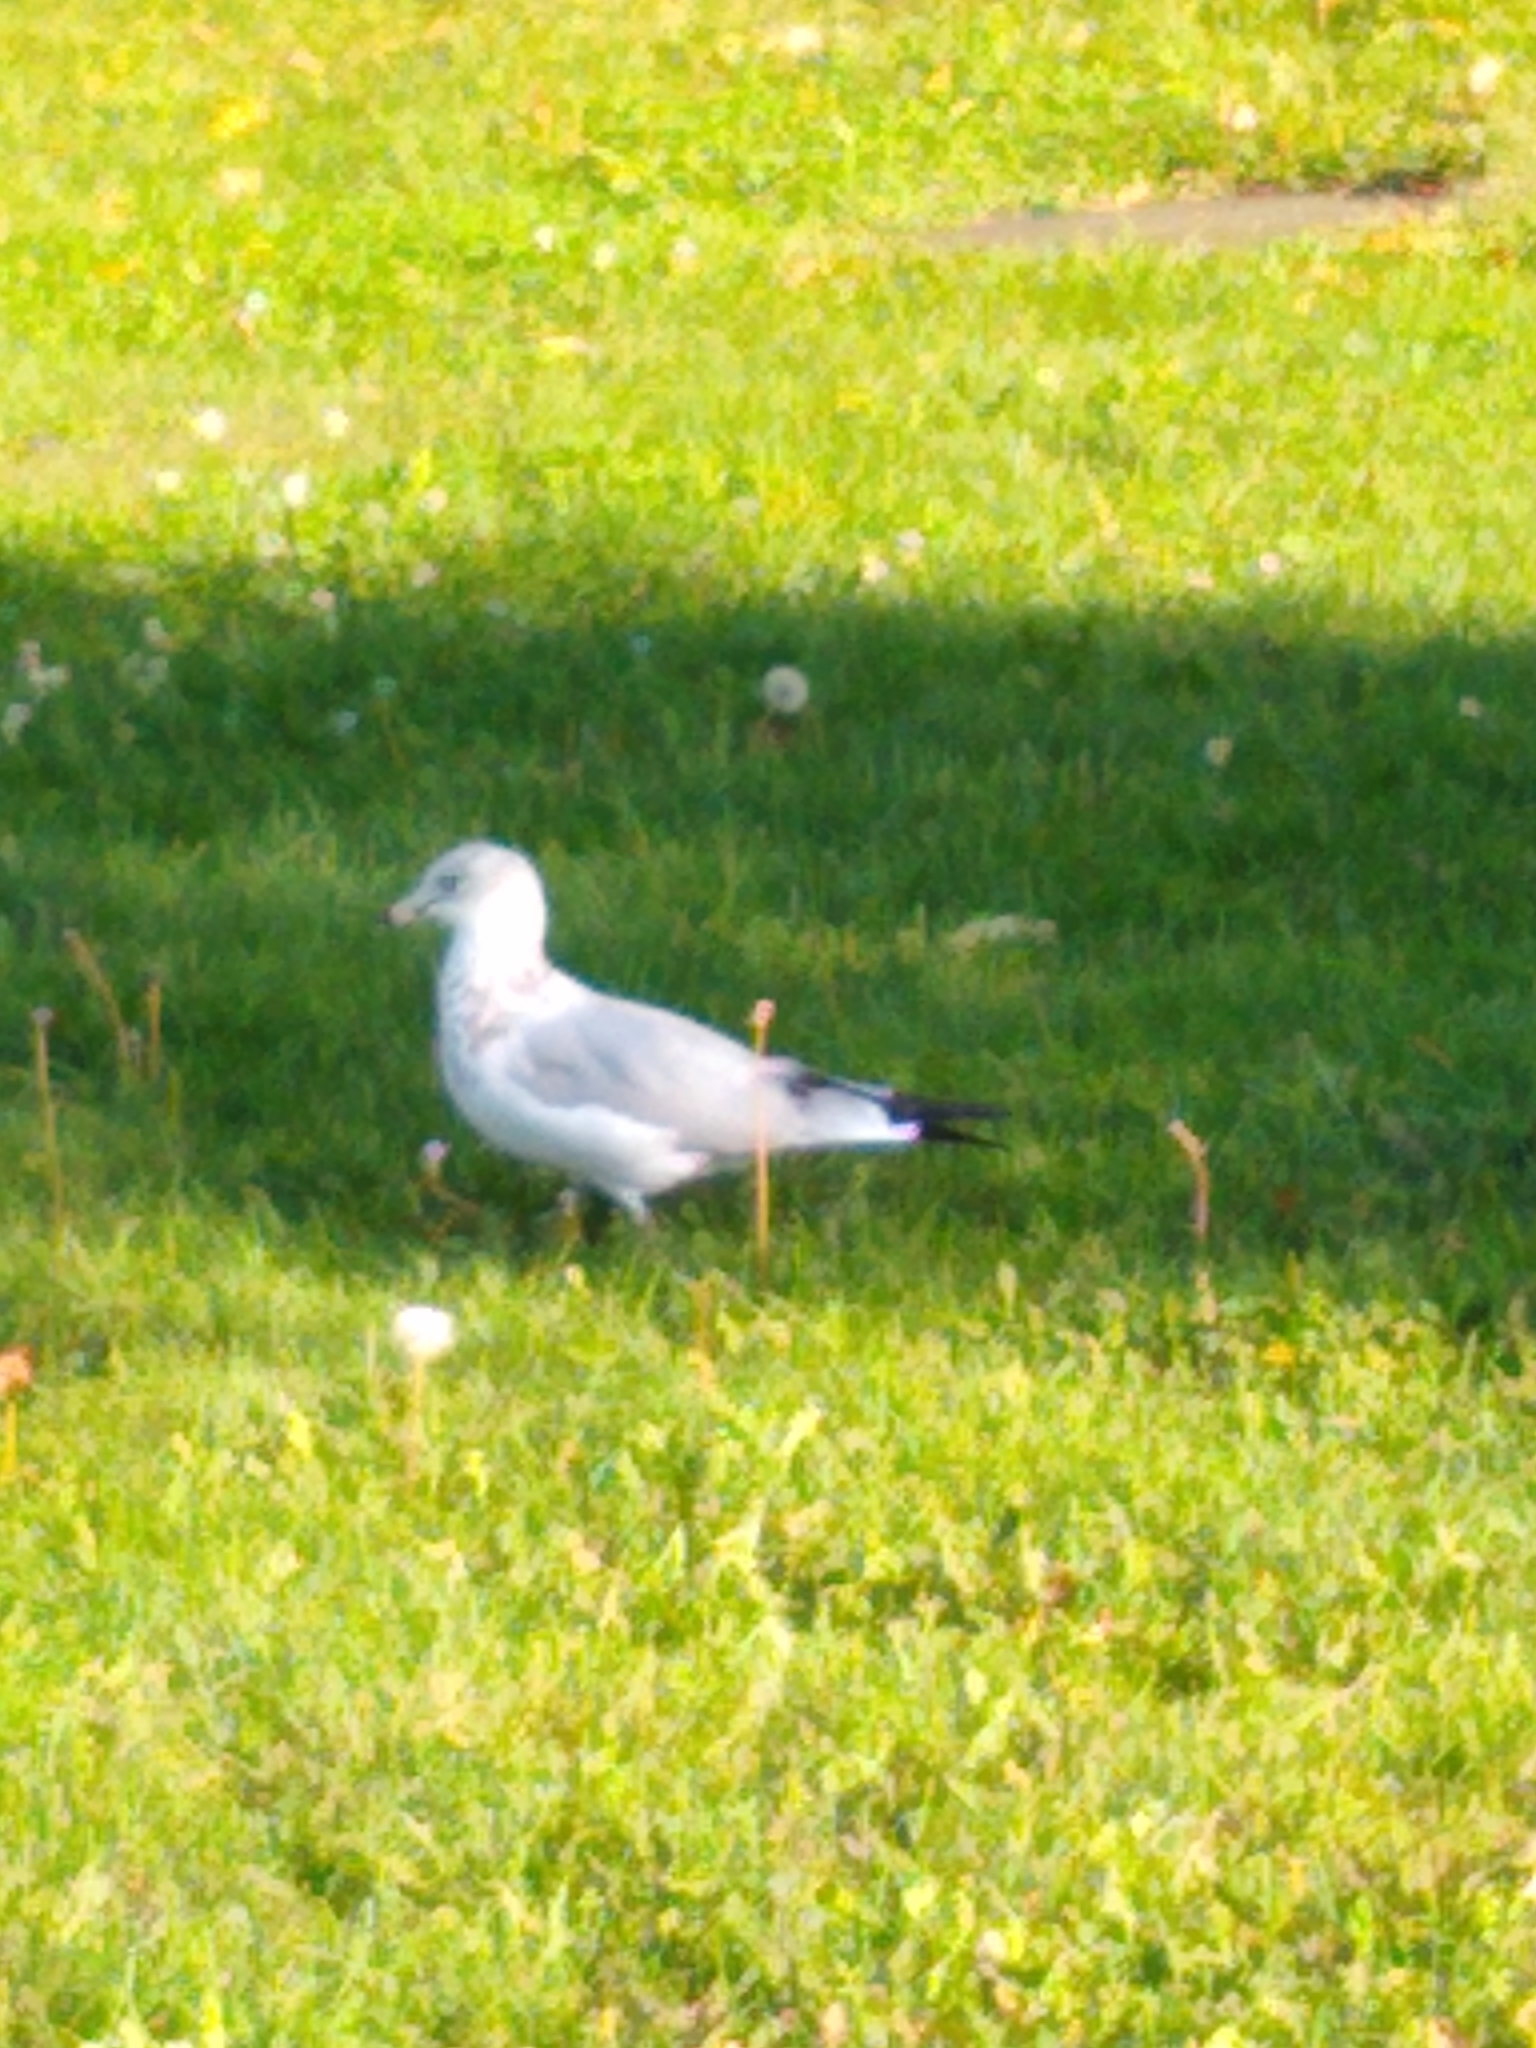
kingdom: Animalia
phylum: Chordata
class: Aves
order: Charadriiformes
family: Laridae
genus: Larus
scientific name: Larus delawarensis
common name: Ring-billed gull
